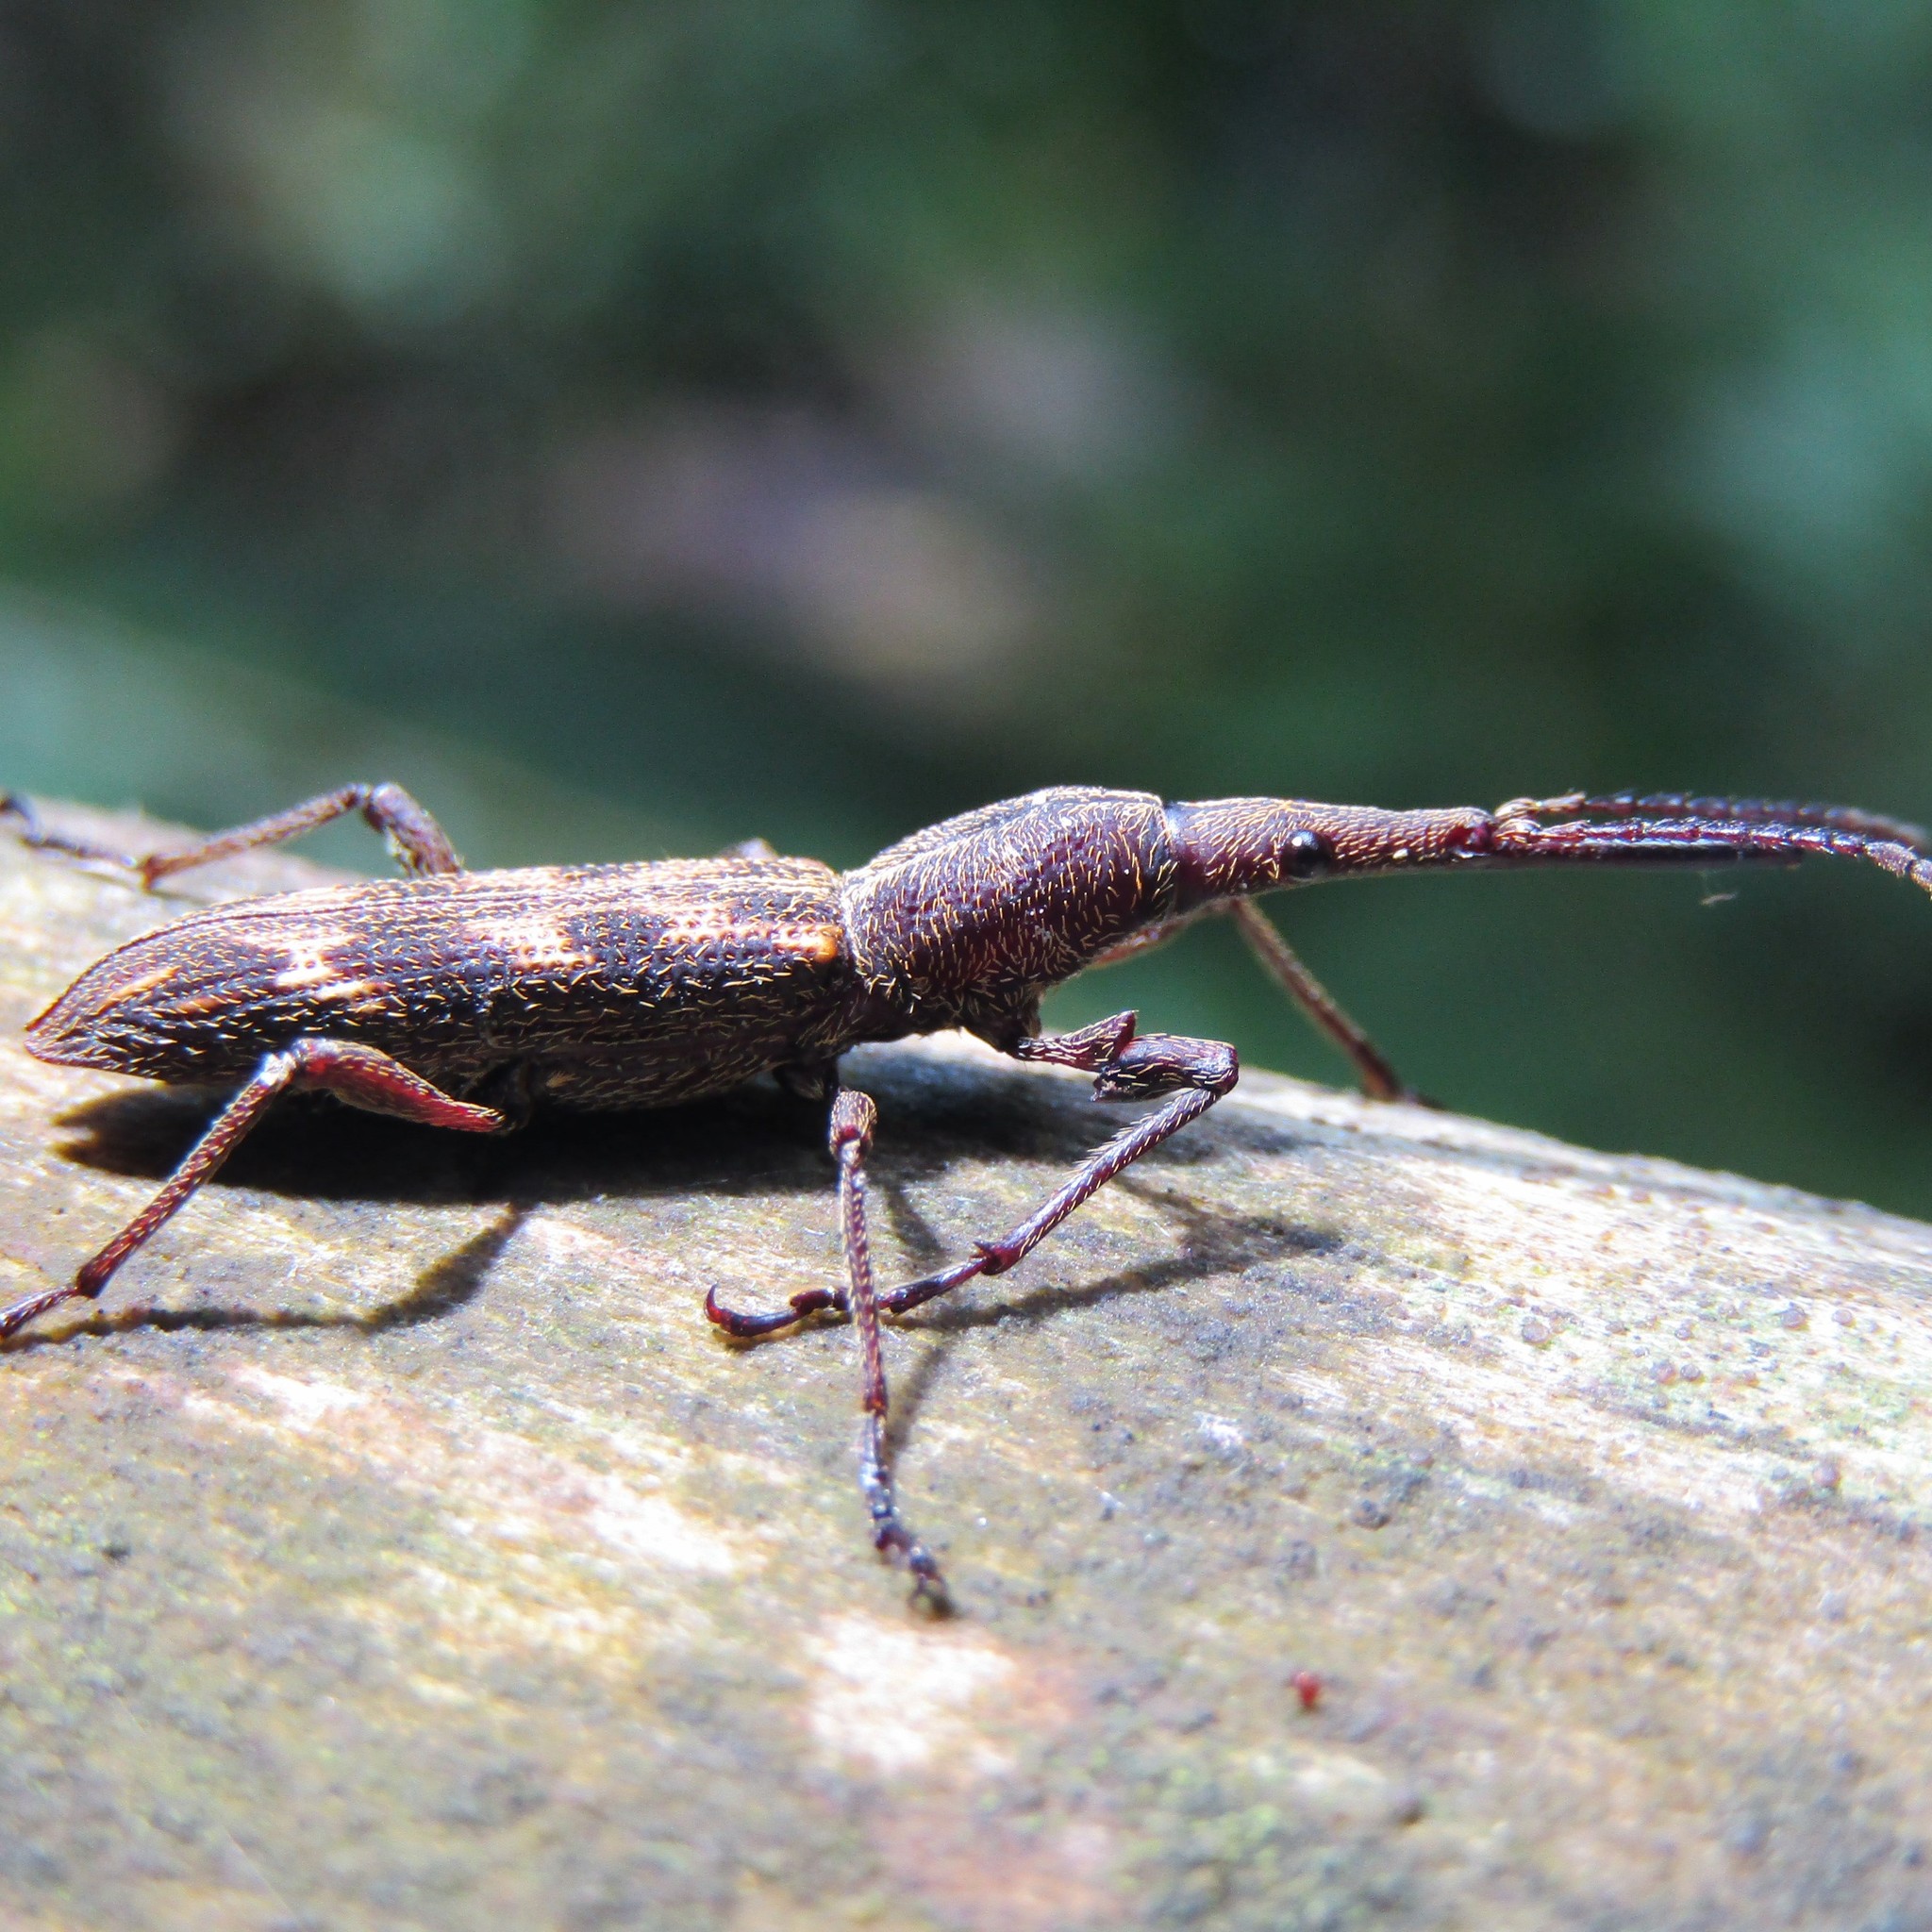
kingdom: Animalia
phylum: Arthropoda
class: Insecta
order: Coleoptera
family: Brentidae
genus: Lasiorhynchus
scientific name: Lasiorhynchus barbicornis
